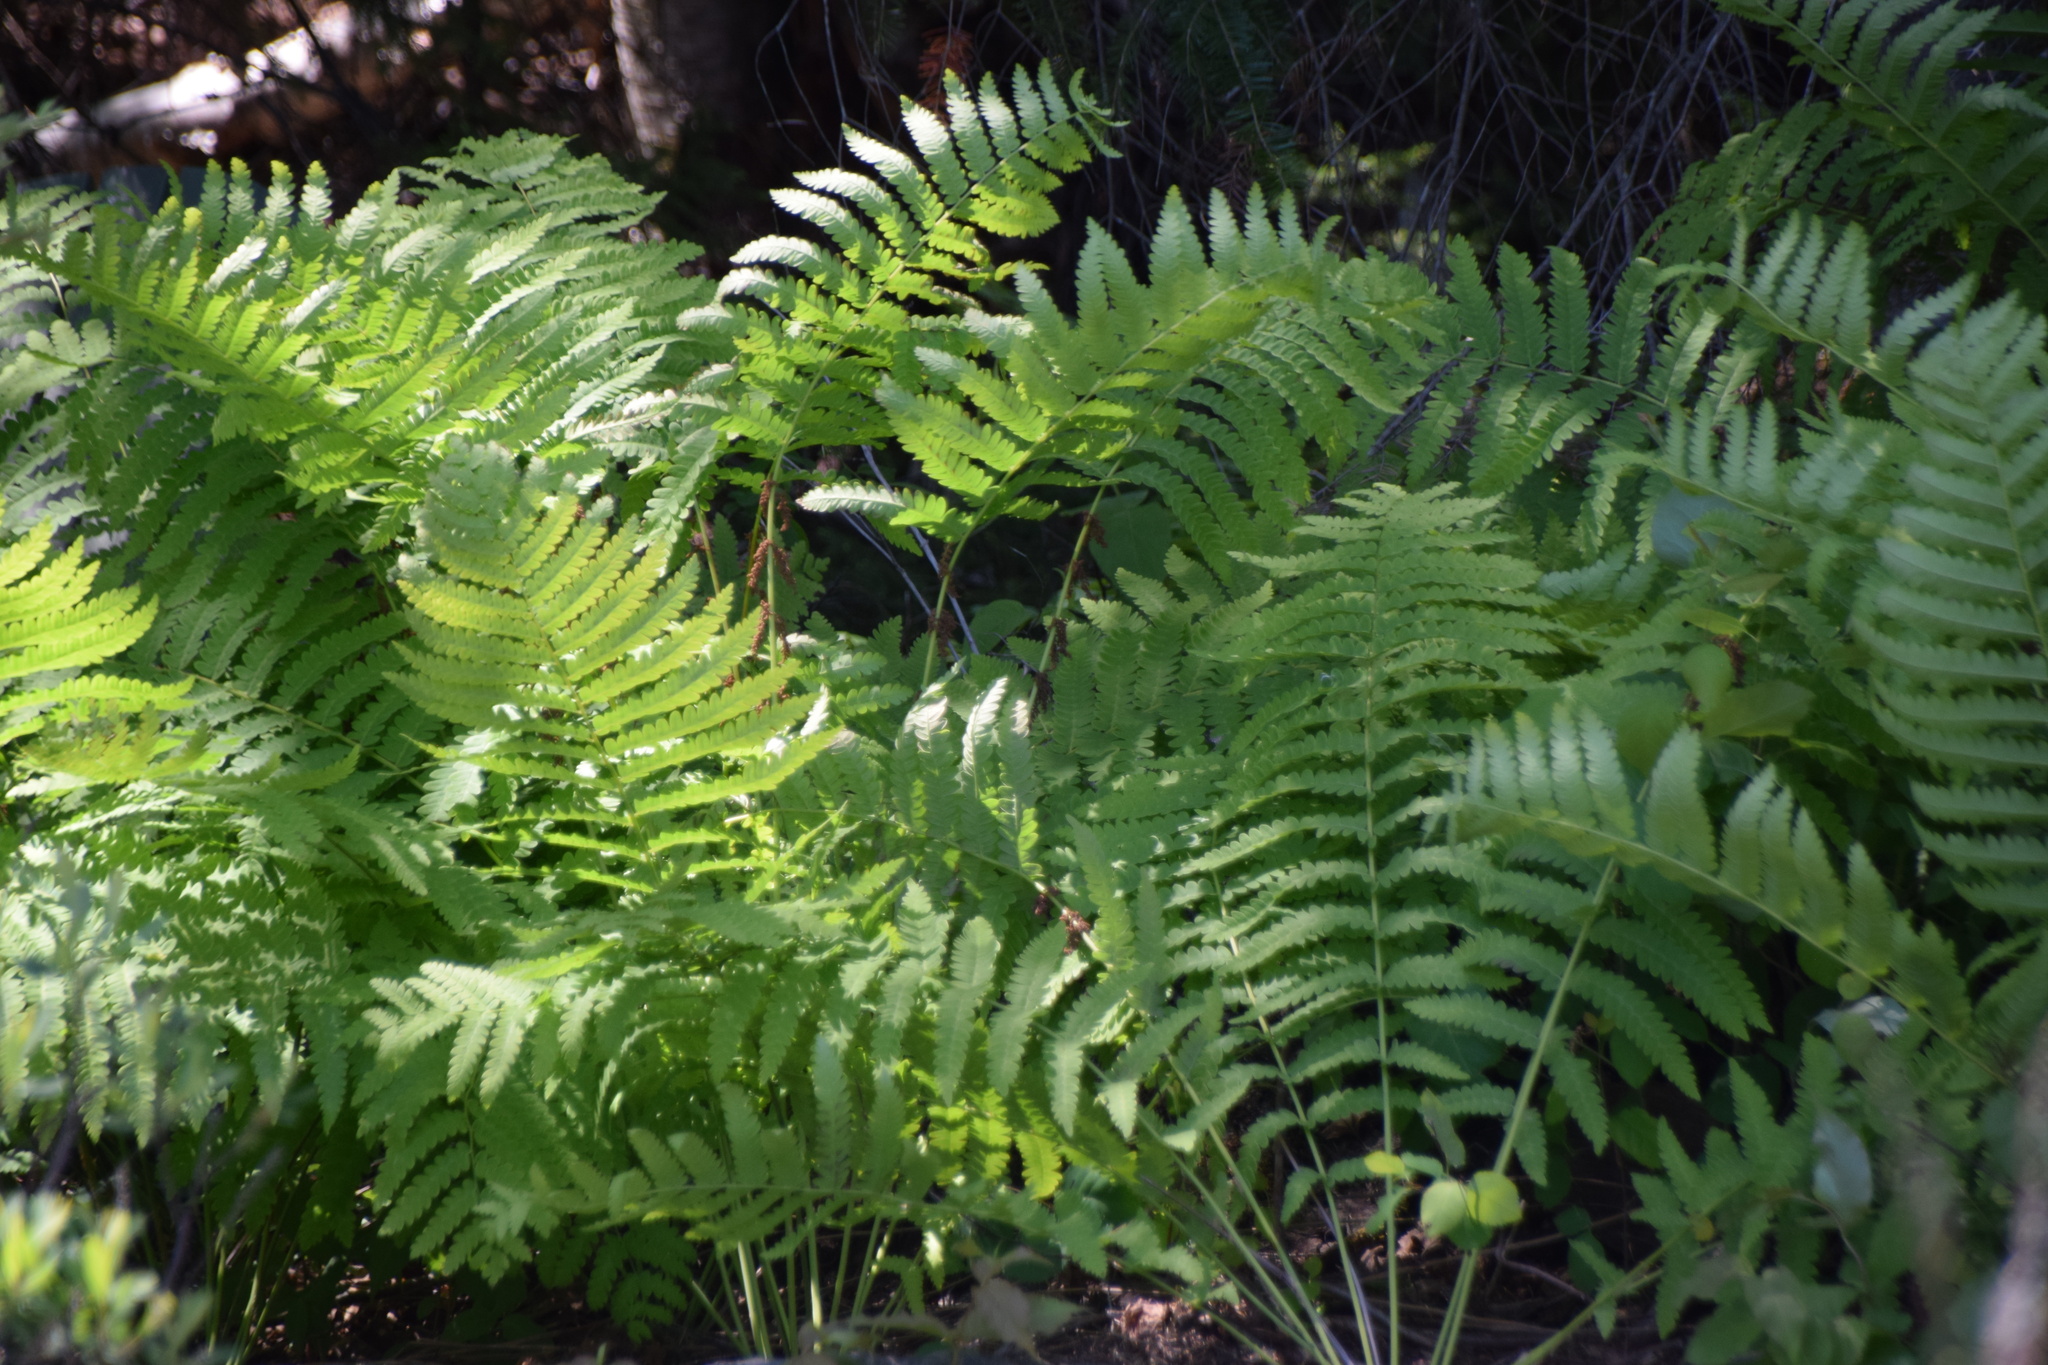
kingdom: Plantae
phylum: Tracheophyta
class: Polypodiopsida
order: Osmundales
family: Osmundaceae
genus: Claytosmunda
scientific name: Claytosmunda claytoniana
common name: Clayton's fern
